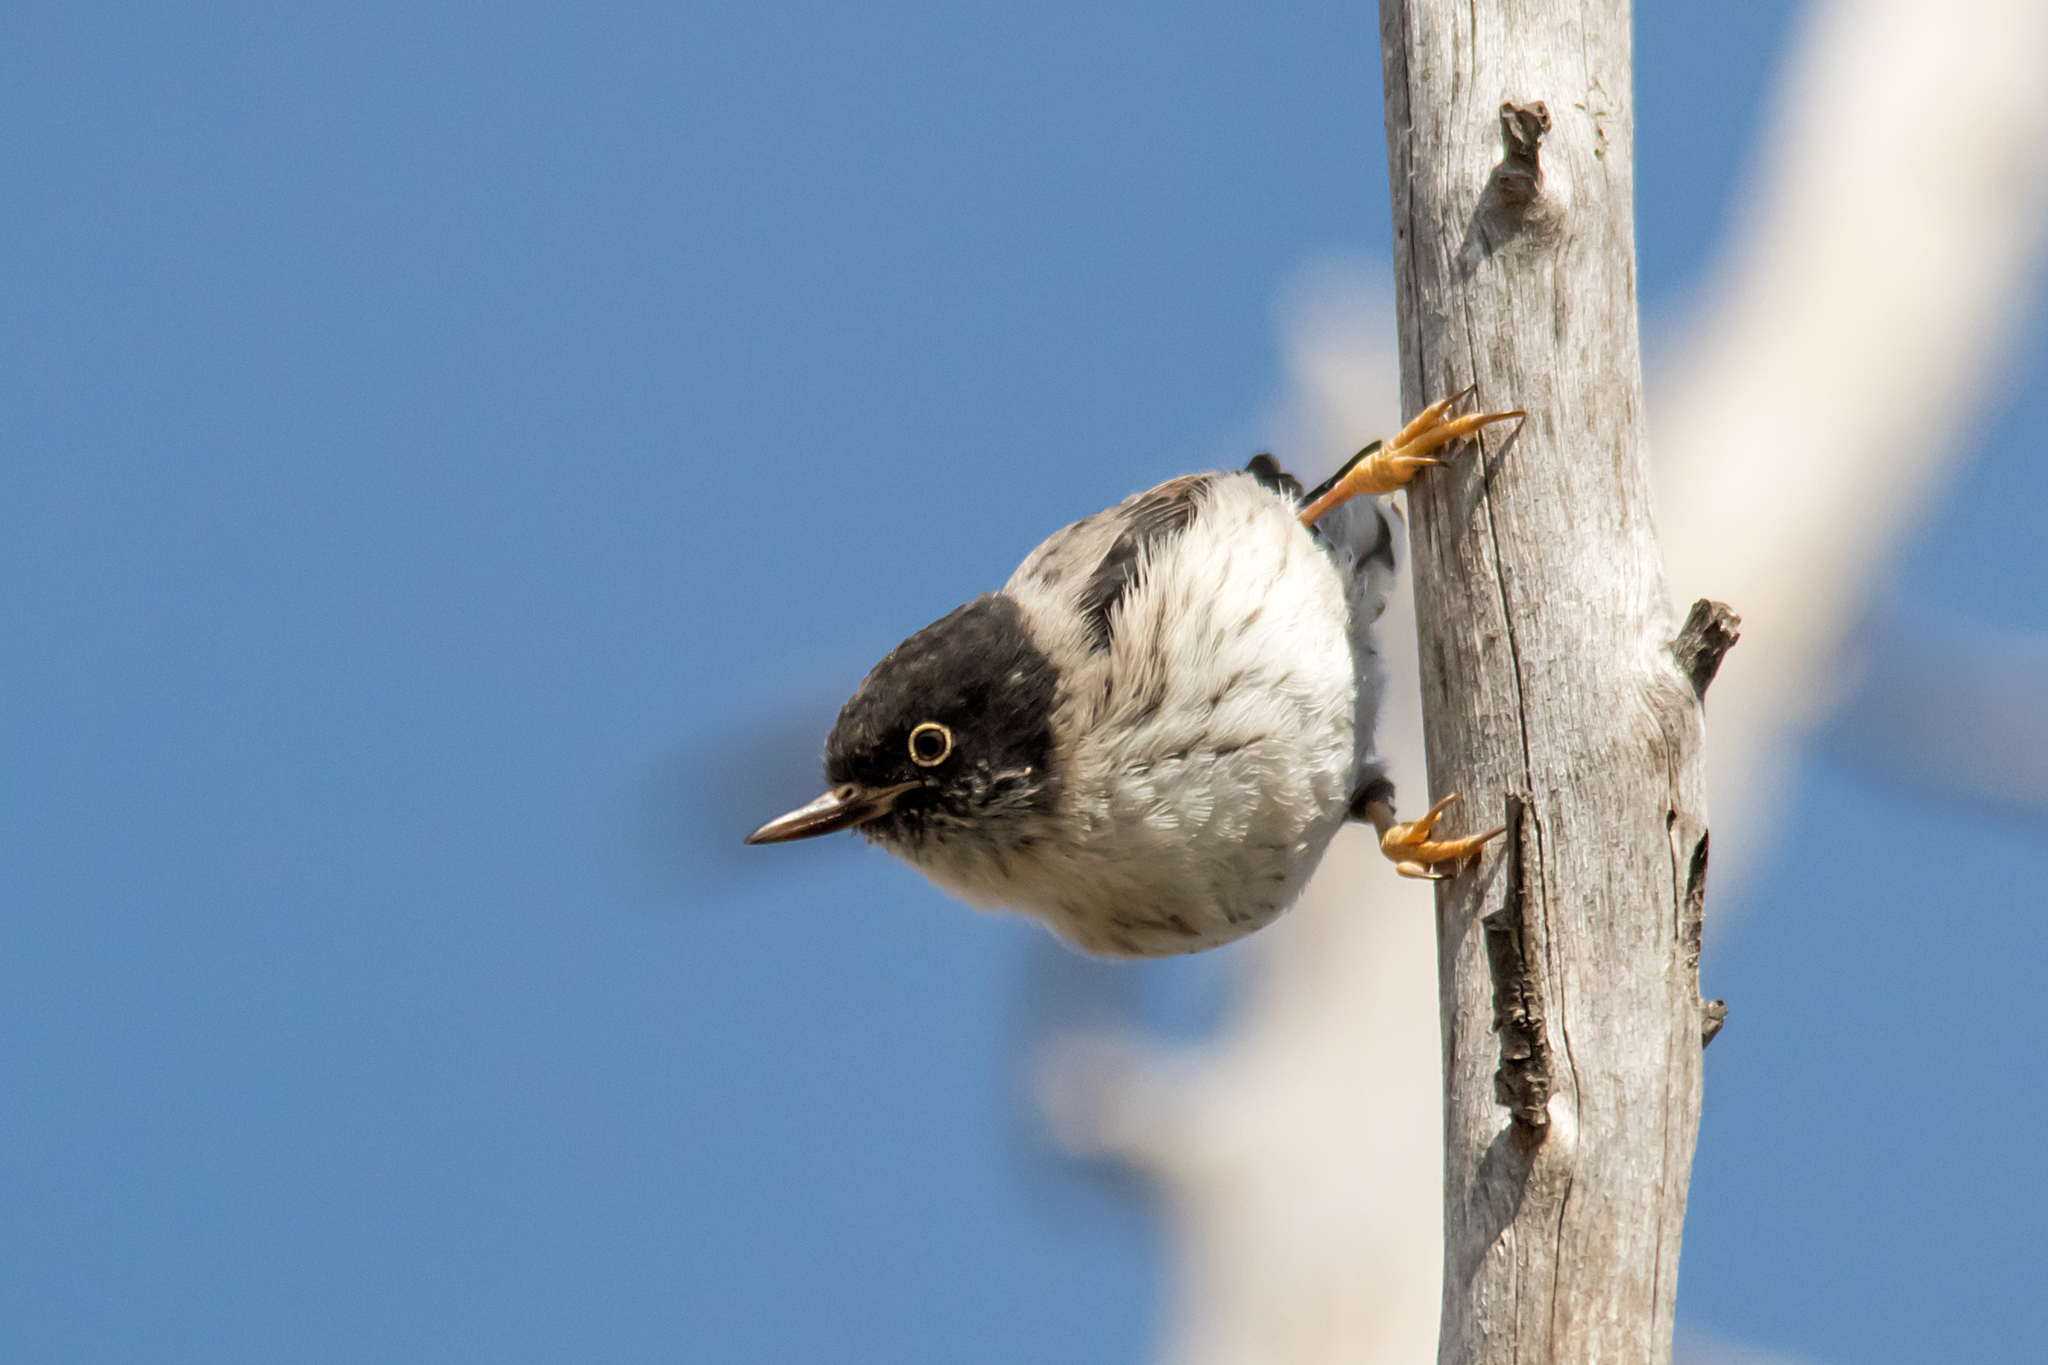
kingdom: Animalia
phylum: Chordata
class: Aves
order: Passeriformes
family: Neosittidae
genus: Daphoenositta
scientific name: Daphoenositta chrysoptera
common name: Varied sittella
